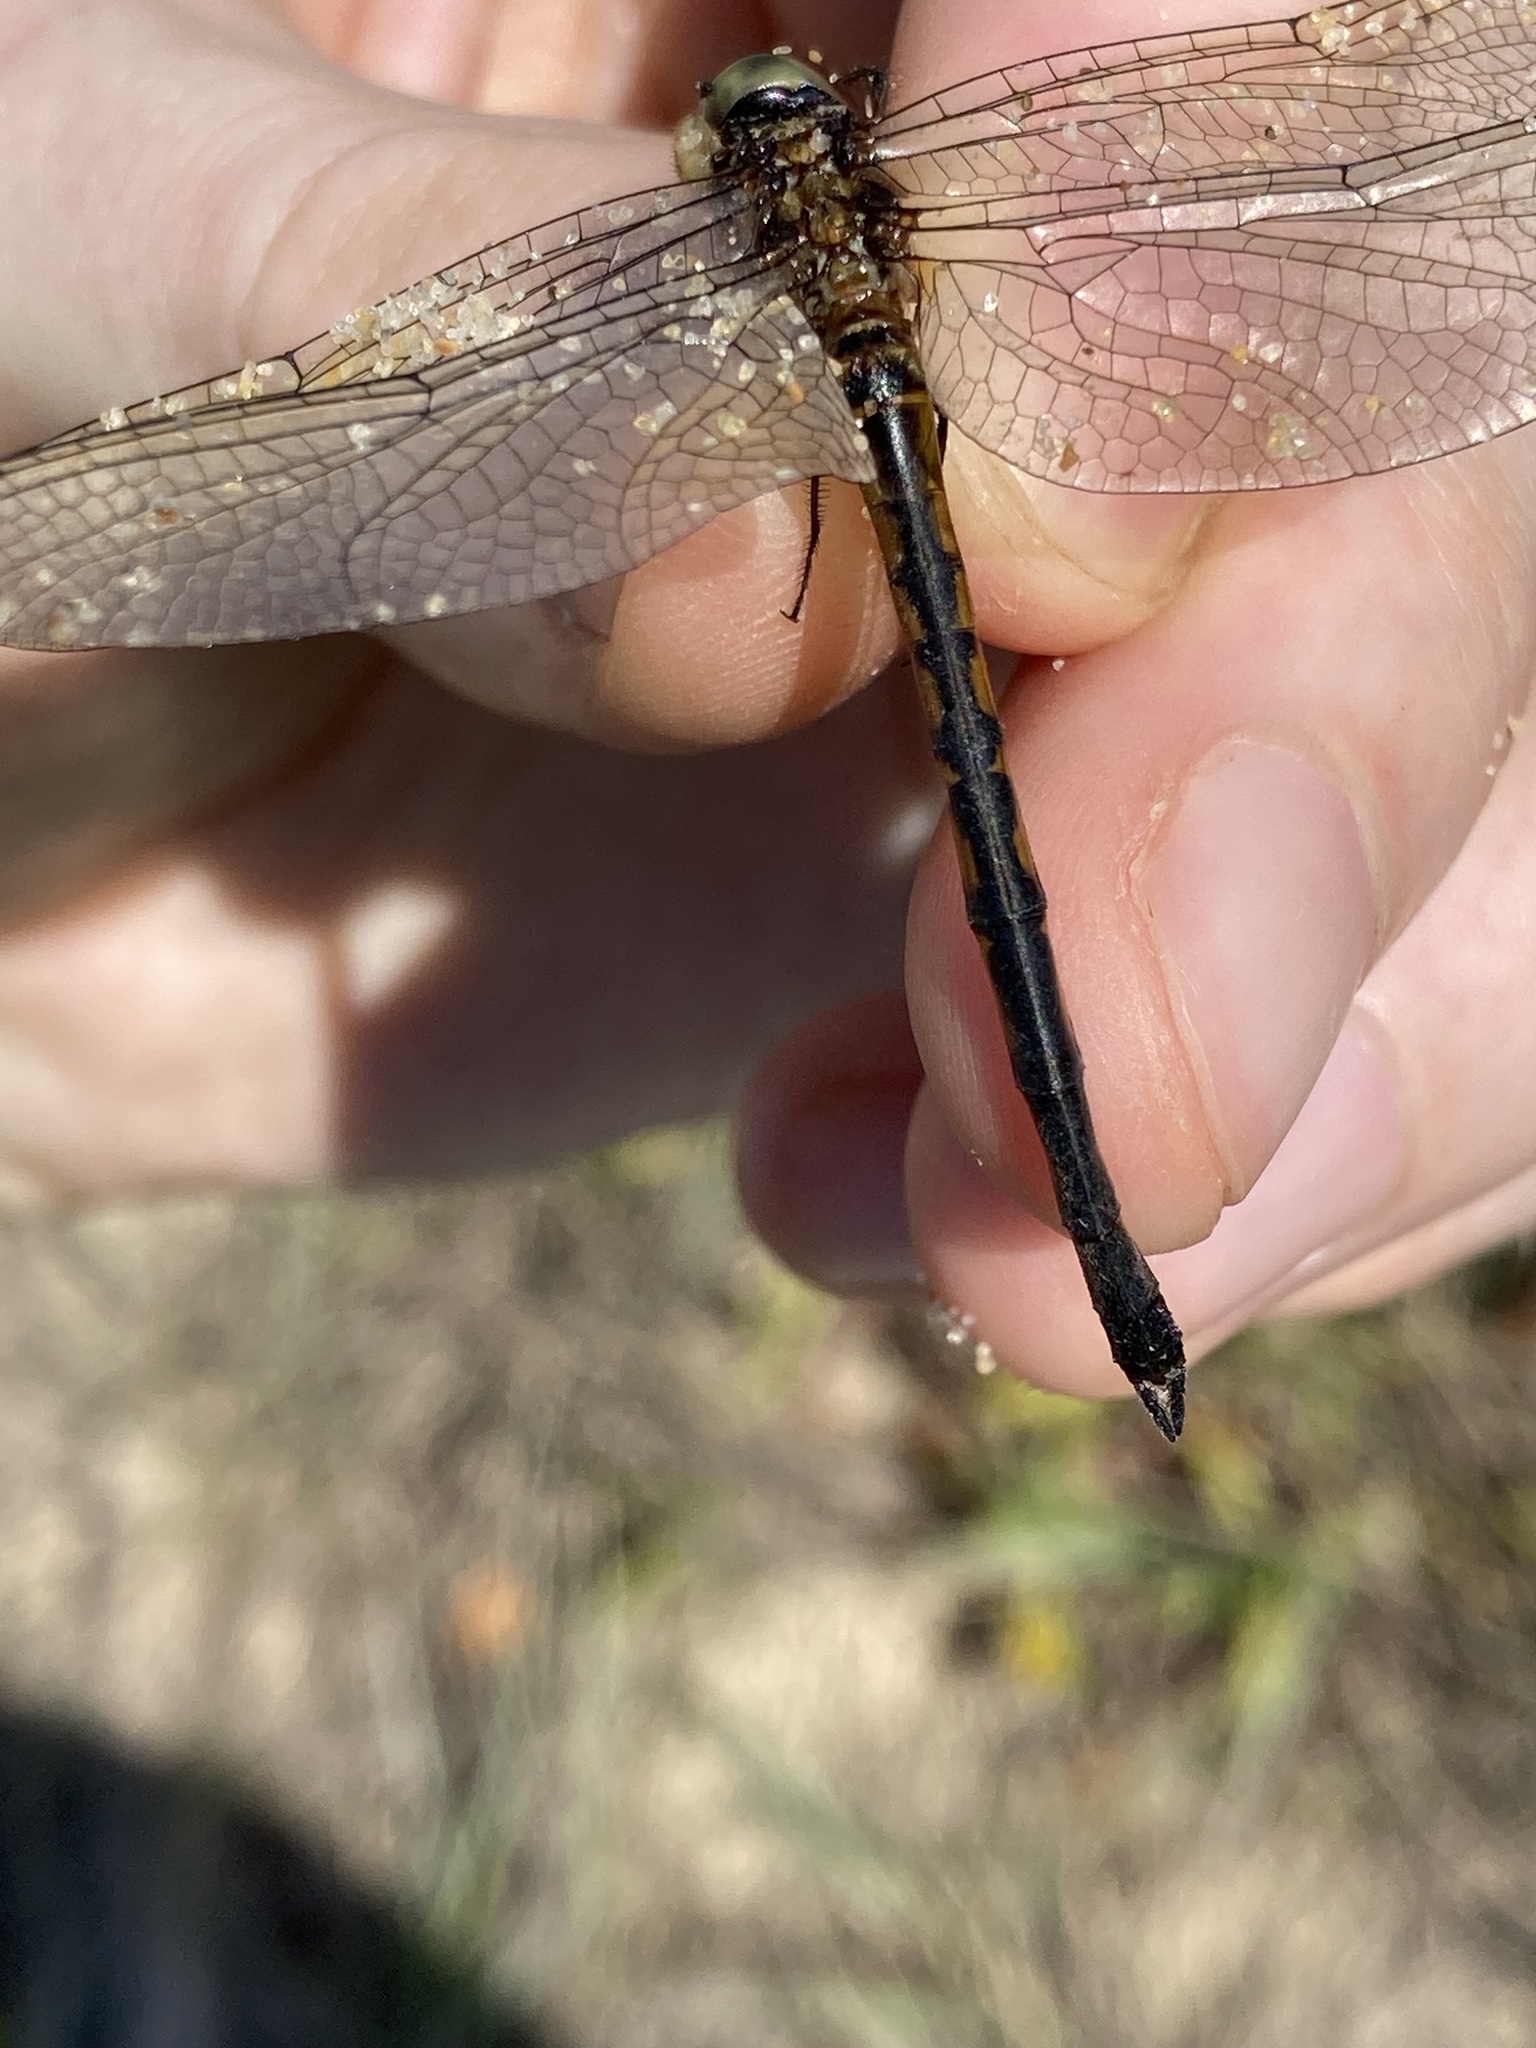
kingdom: Animalia
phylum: Arthropoda
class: Insecta
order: Odonata
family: Corduliidae
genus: Hemicordulia
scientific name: Hemicordulia continentalis
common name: Fat-bellied emerald
